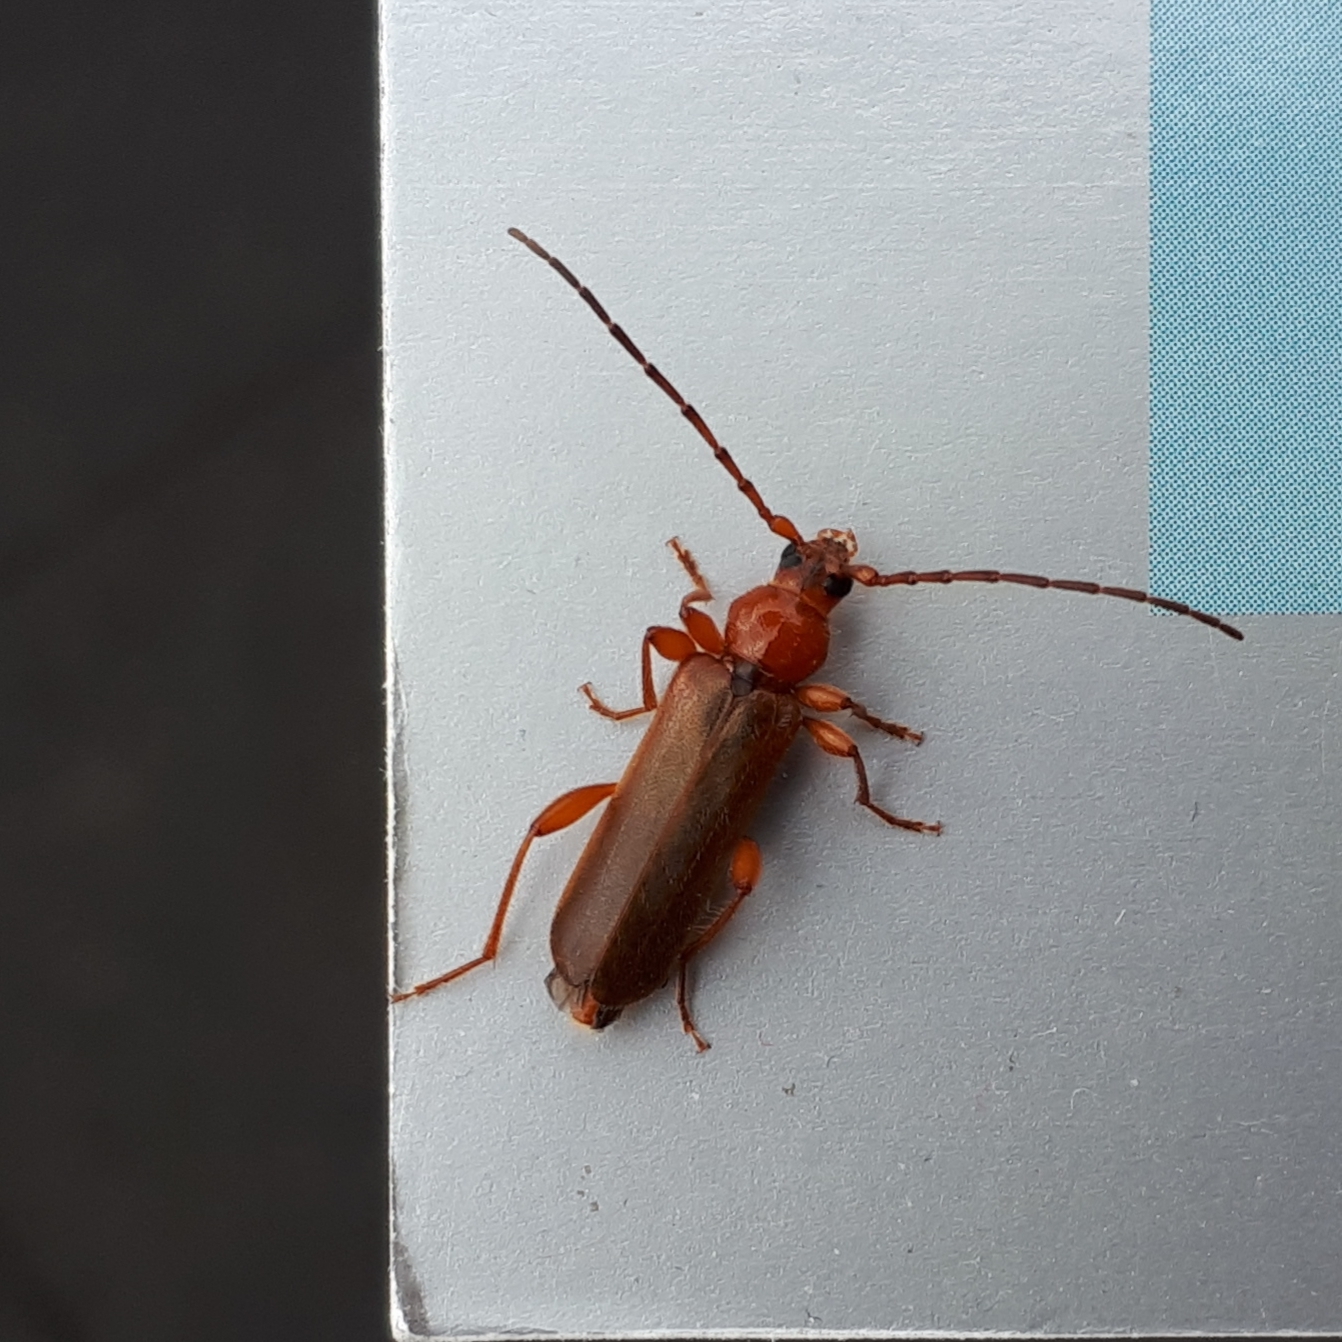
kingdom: Animalia
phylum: Arthropoda
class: Insecta
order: Coleoptera
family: Cerambycidae
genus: Phymatodes
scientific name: Phymatodes testaceus
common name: Long-horned beetle
